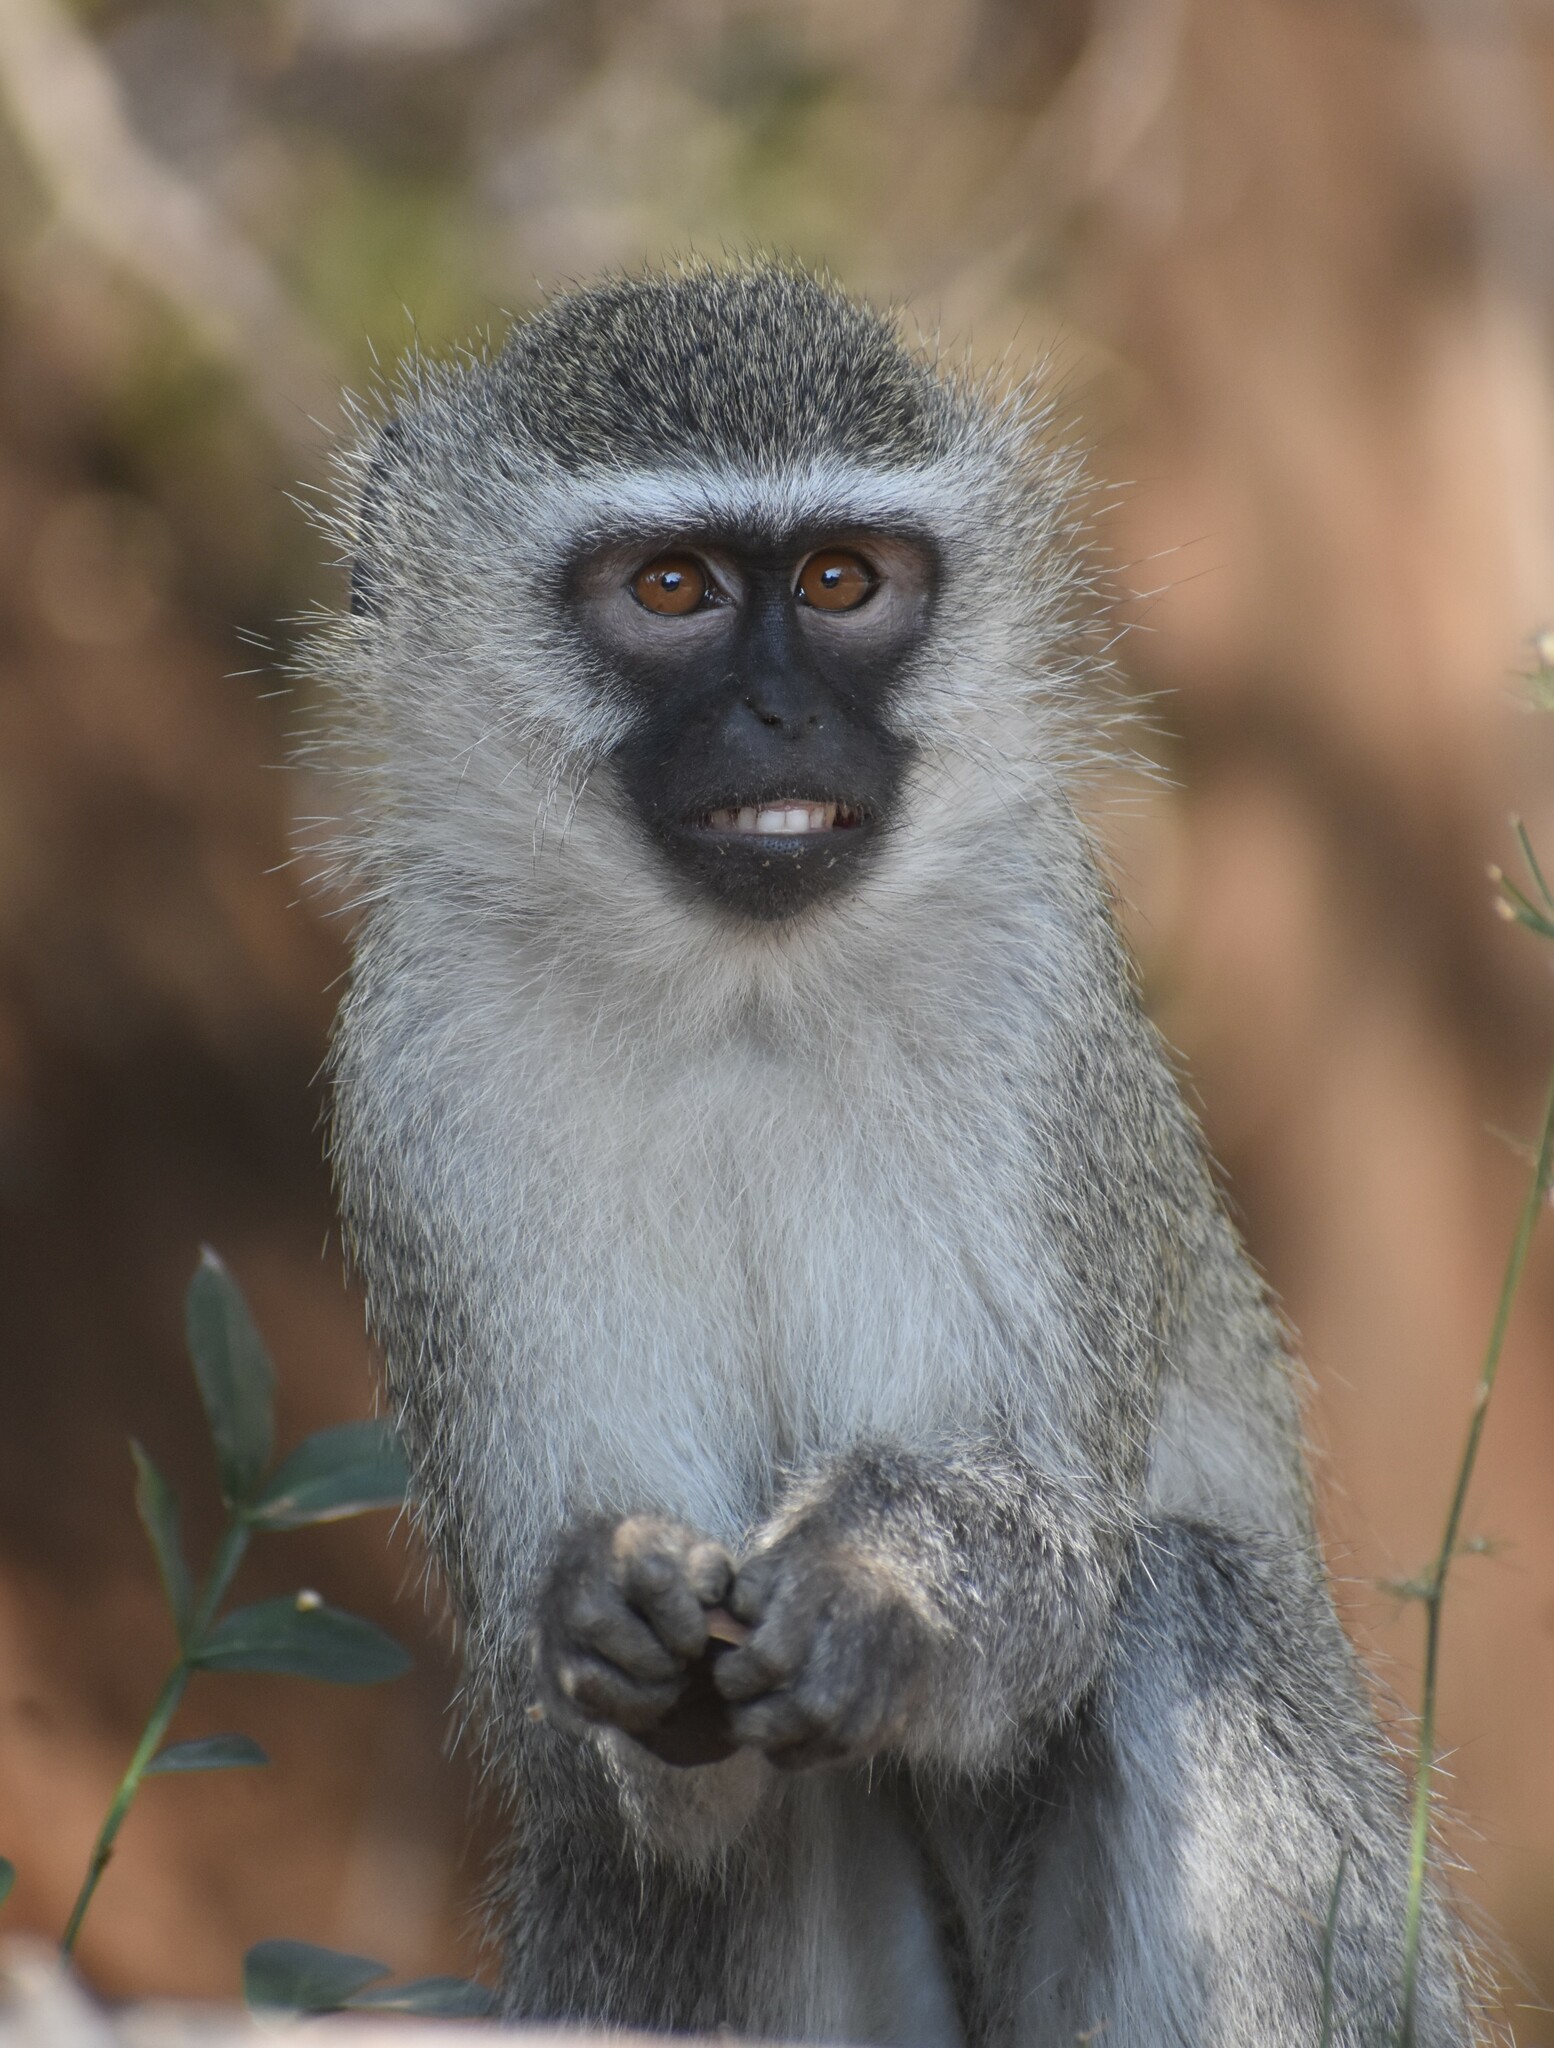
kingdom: Animalia
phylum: Chordata
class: Mammalia
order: Primates
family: Cercopithecidae
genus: Chlorocebus
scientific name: Chlorocebus pygerythrus
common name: Vervet monkey
